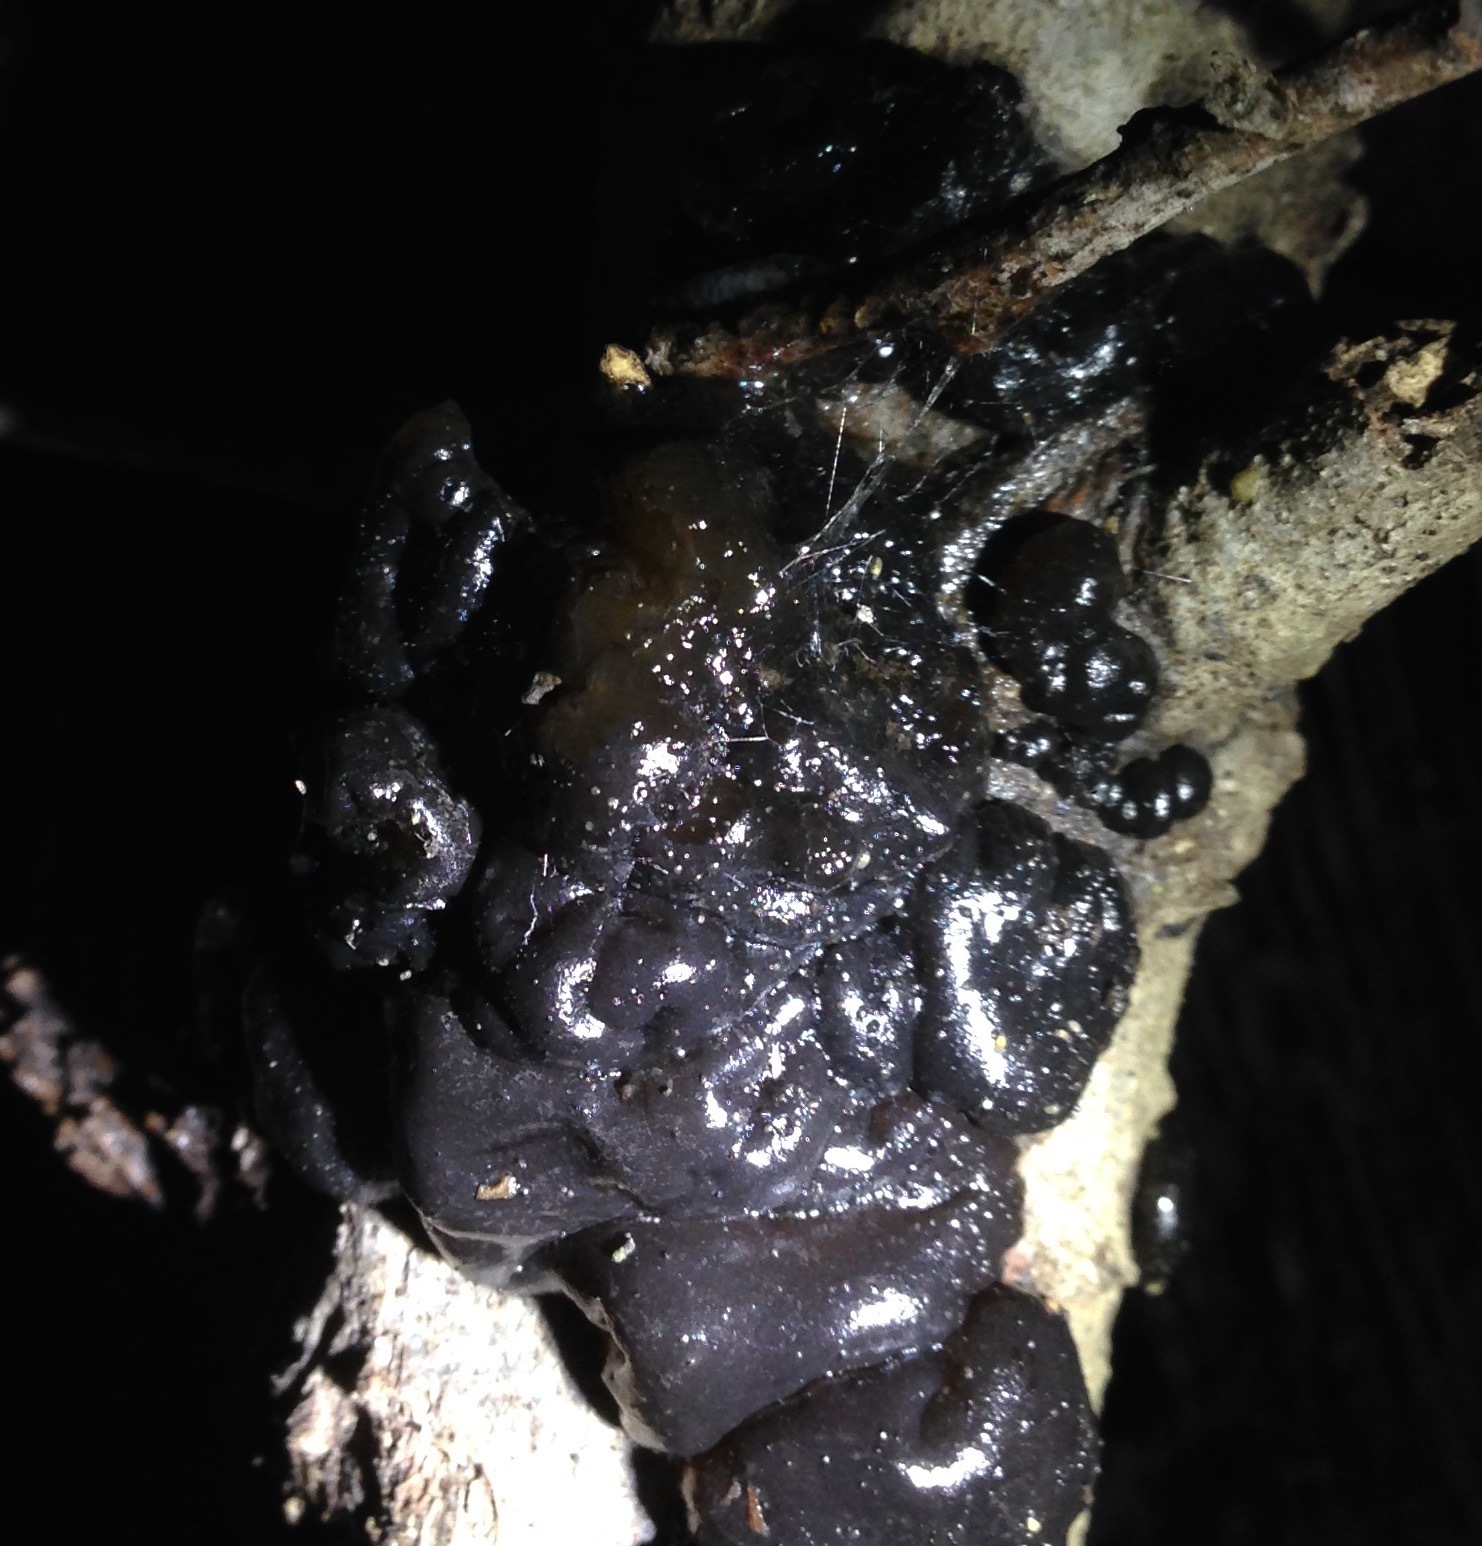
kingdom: Fungi
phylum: Basidiomycota
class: Agaricomycetes
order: Auriculariales
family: Auriculariaceae
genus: Exidia
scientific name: Exidia glandulosa
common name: Witches' butter
